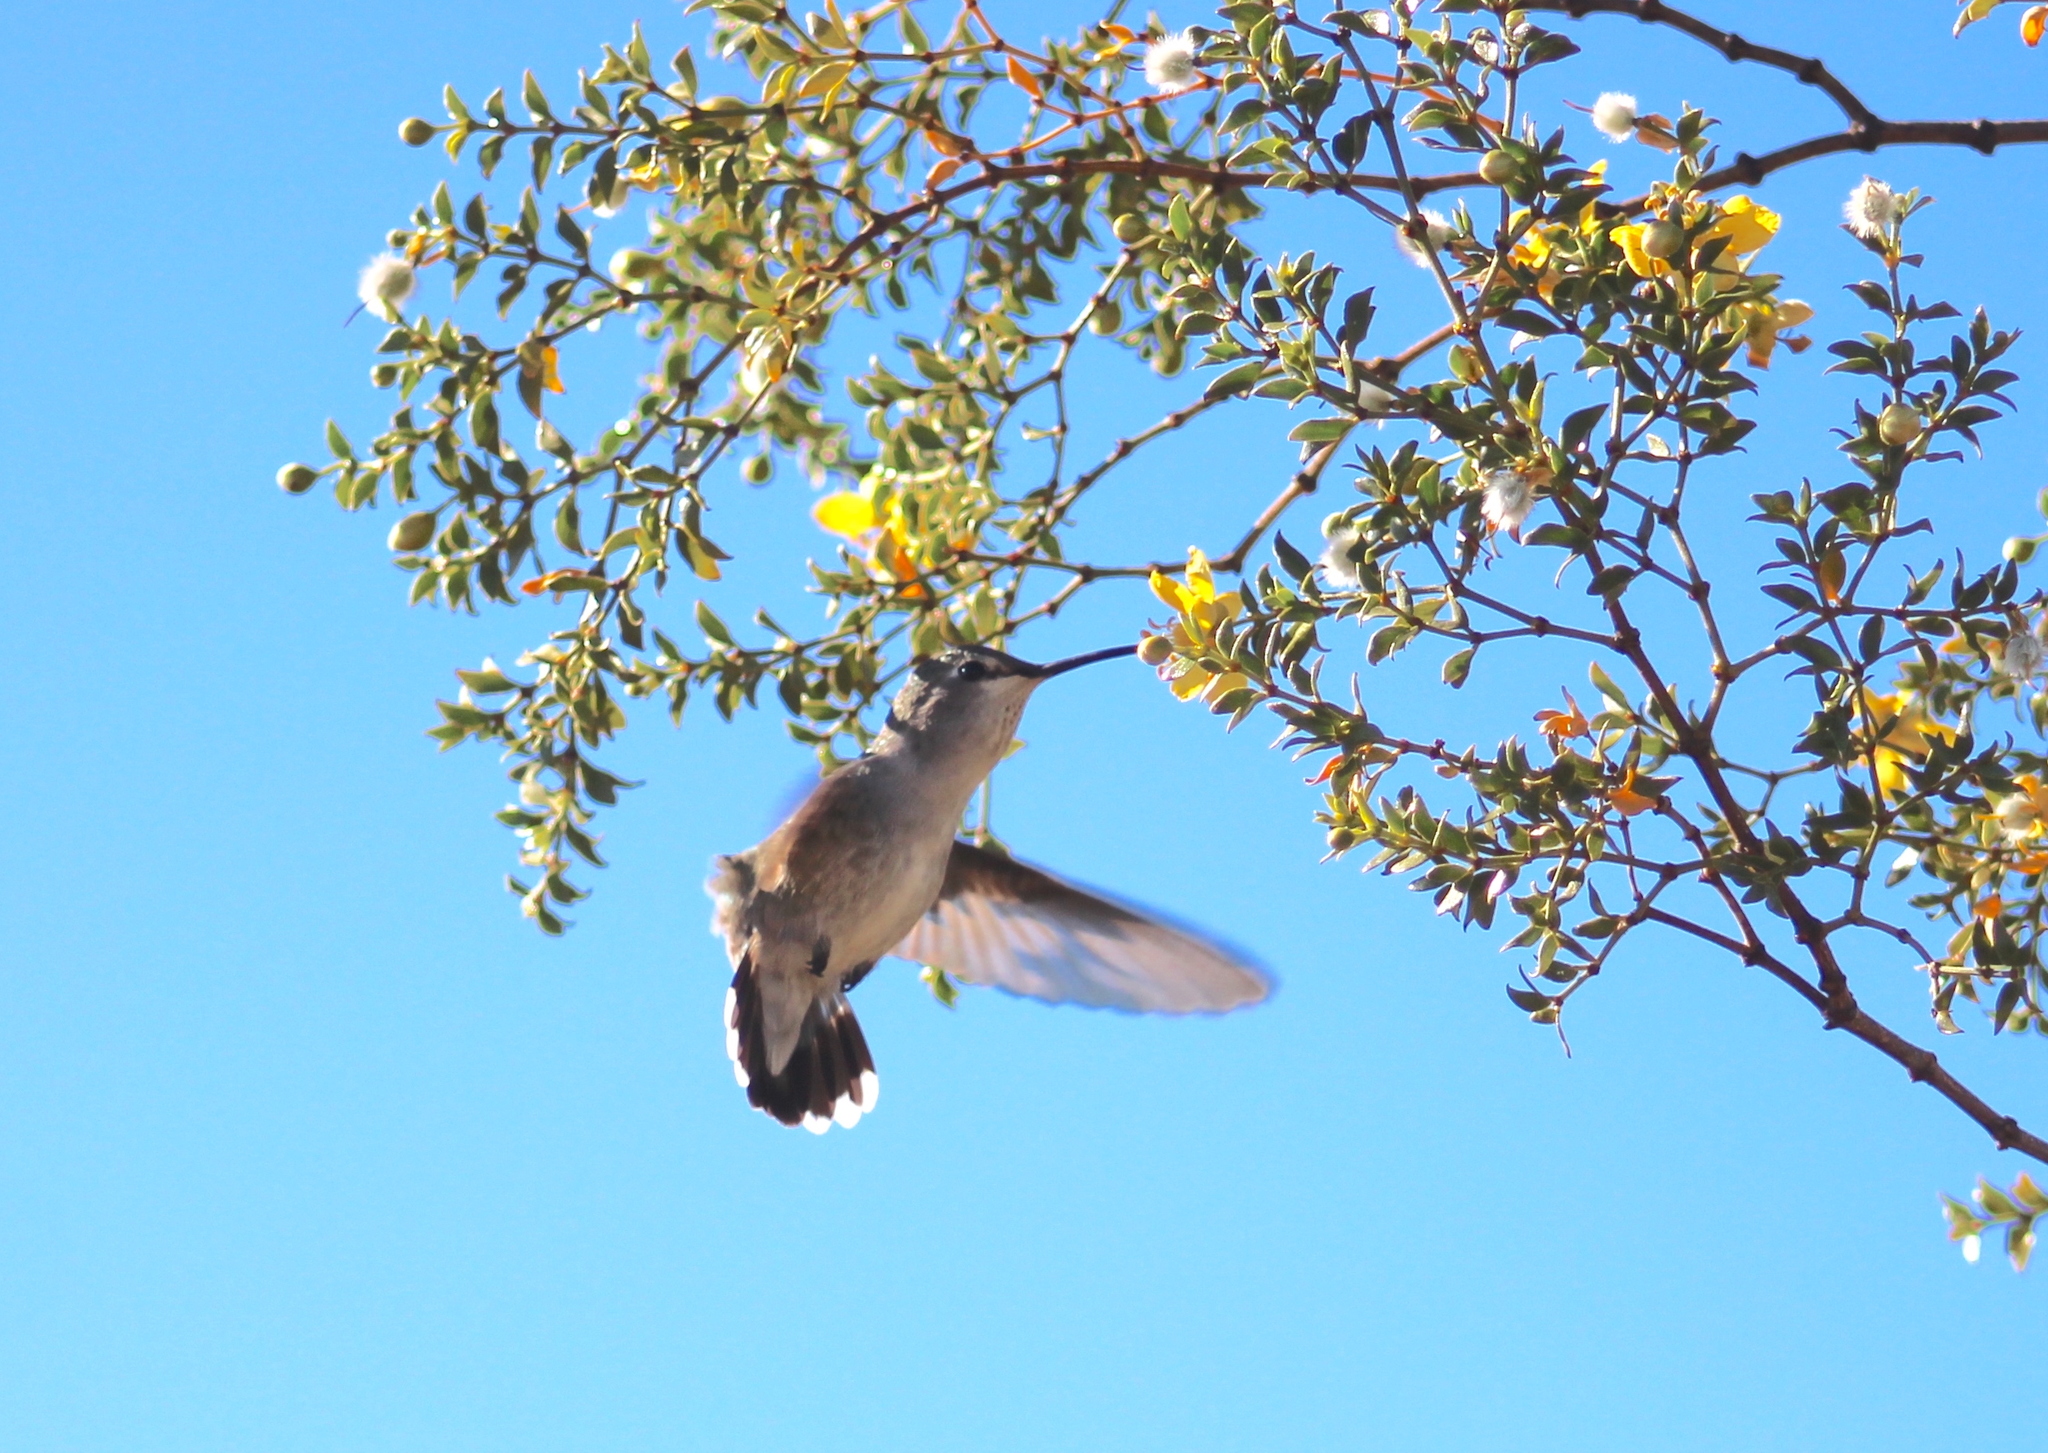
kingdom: Animalia
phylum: Chordata
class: Aves
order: Apodiformes
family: Trochilidae
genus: Calypte
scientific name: Calypte costae
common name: Costa's hummingbird
